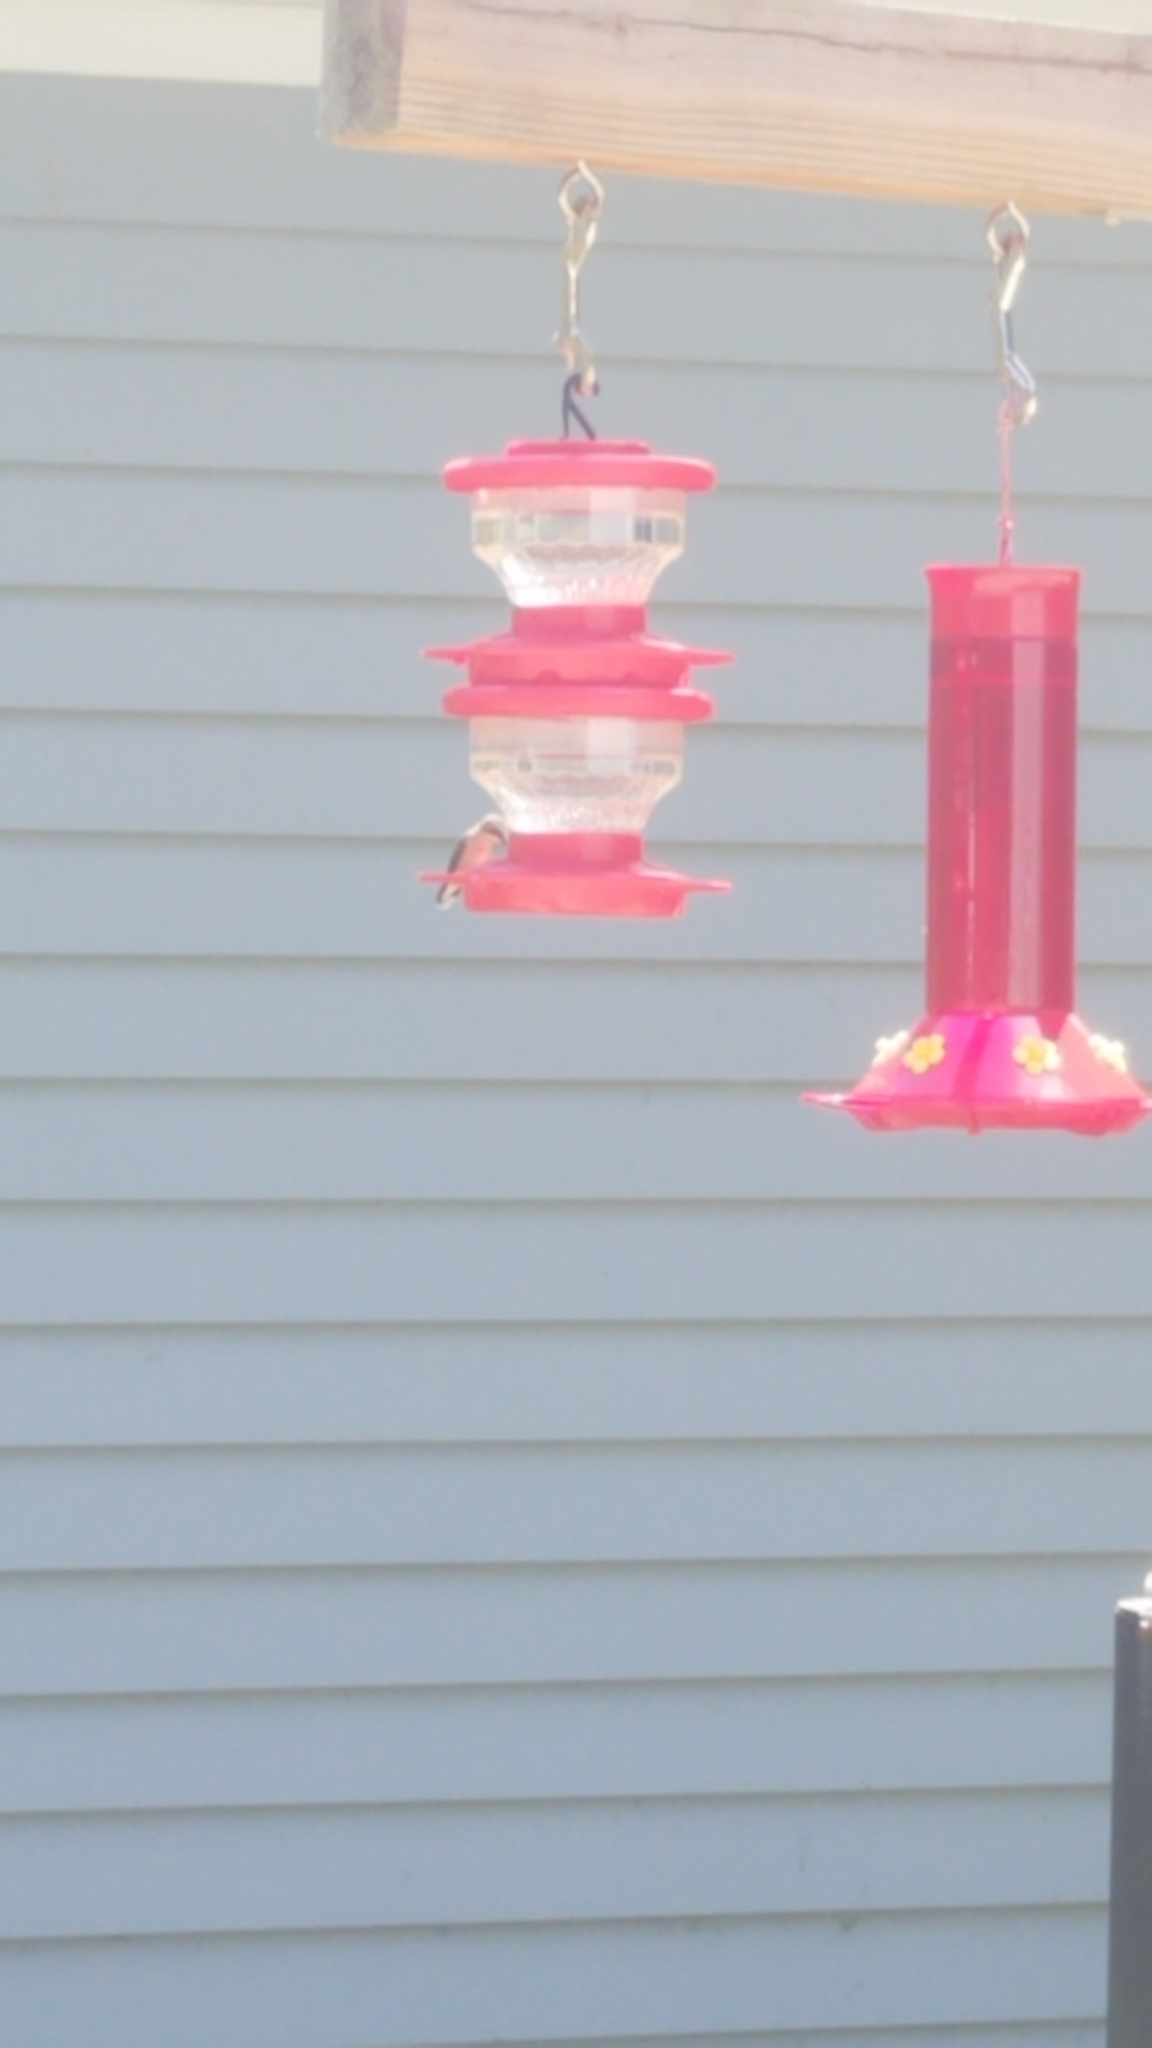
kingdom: Animalia
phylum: Chordata
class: Aves
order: Apodiformes
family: Trochilidae
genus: Archilochus
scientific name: Archilochus colubris
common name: Ruby-throated hummingbird
